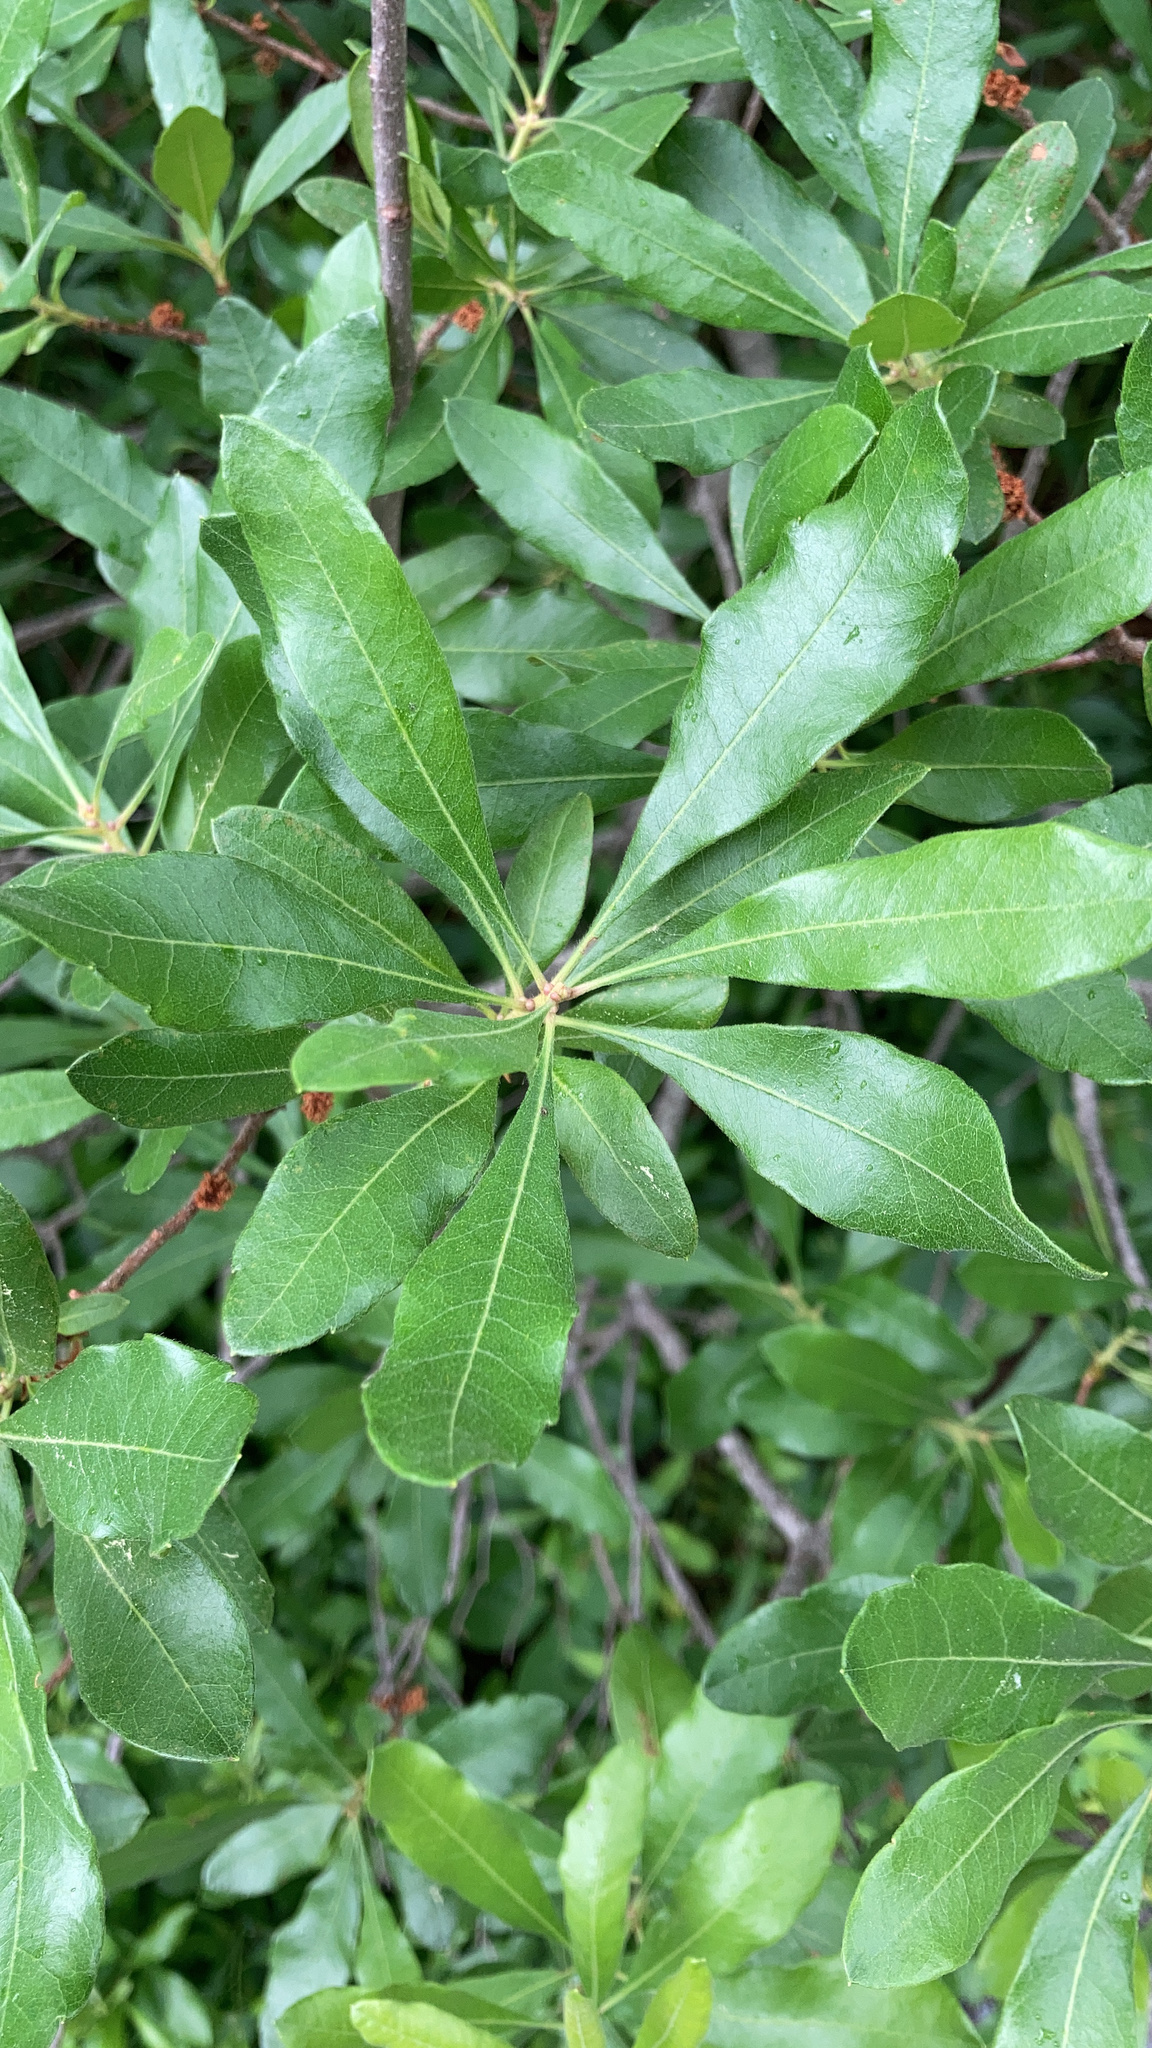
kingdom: Plantae
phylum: Tracheophyta
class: Magnoliopsida
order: Fagales
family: Myricaceae
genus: Morella
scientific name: Morella pensylvanica
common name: Northern bayberry
